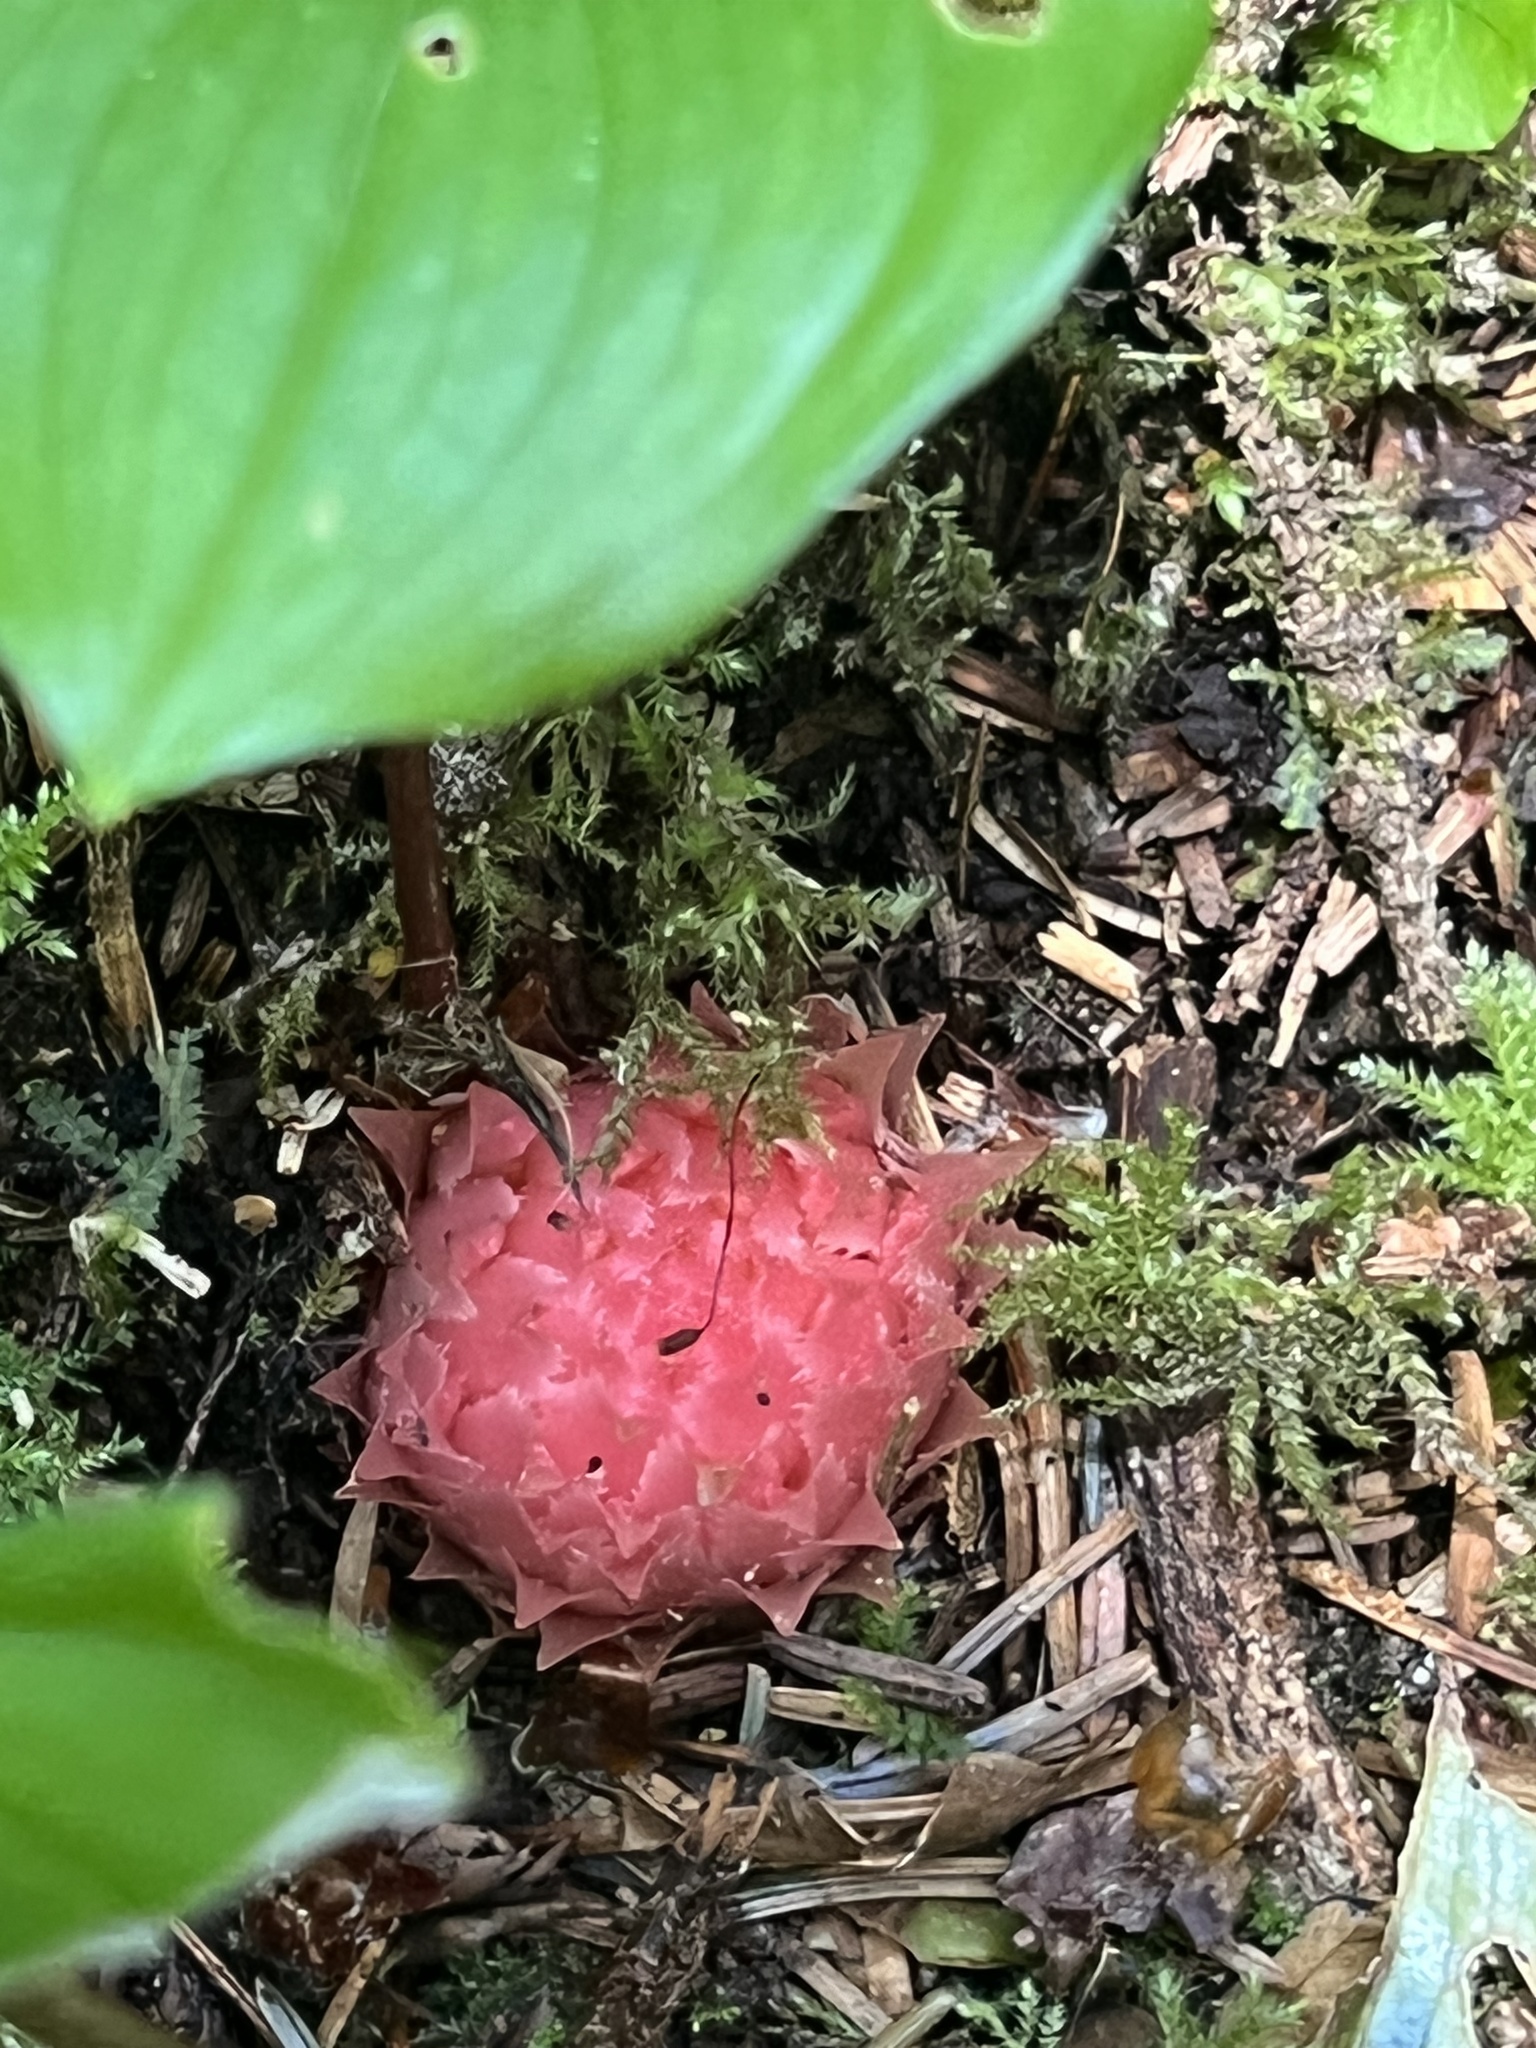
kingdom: Plantae
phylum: Tracheophyta
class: Magnoliopsida
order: Ericales
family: Ericaceae
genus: Hemitomes
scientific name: Hemitomes congestum
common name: Cone plant
